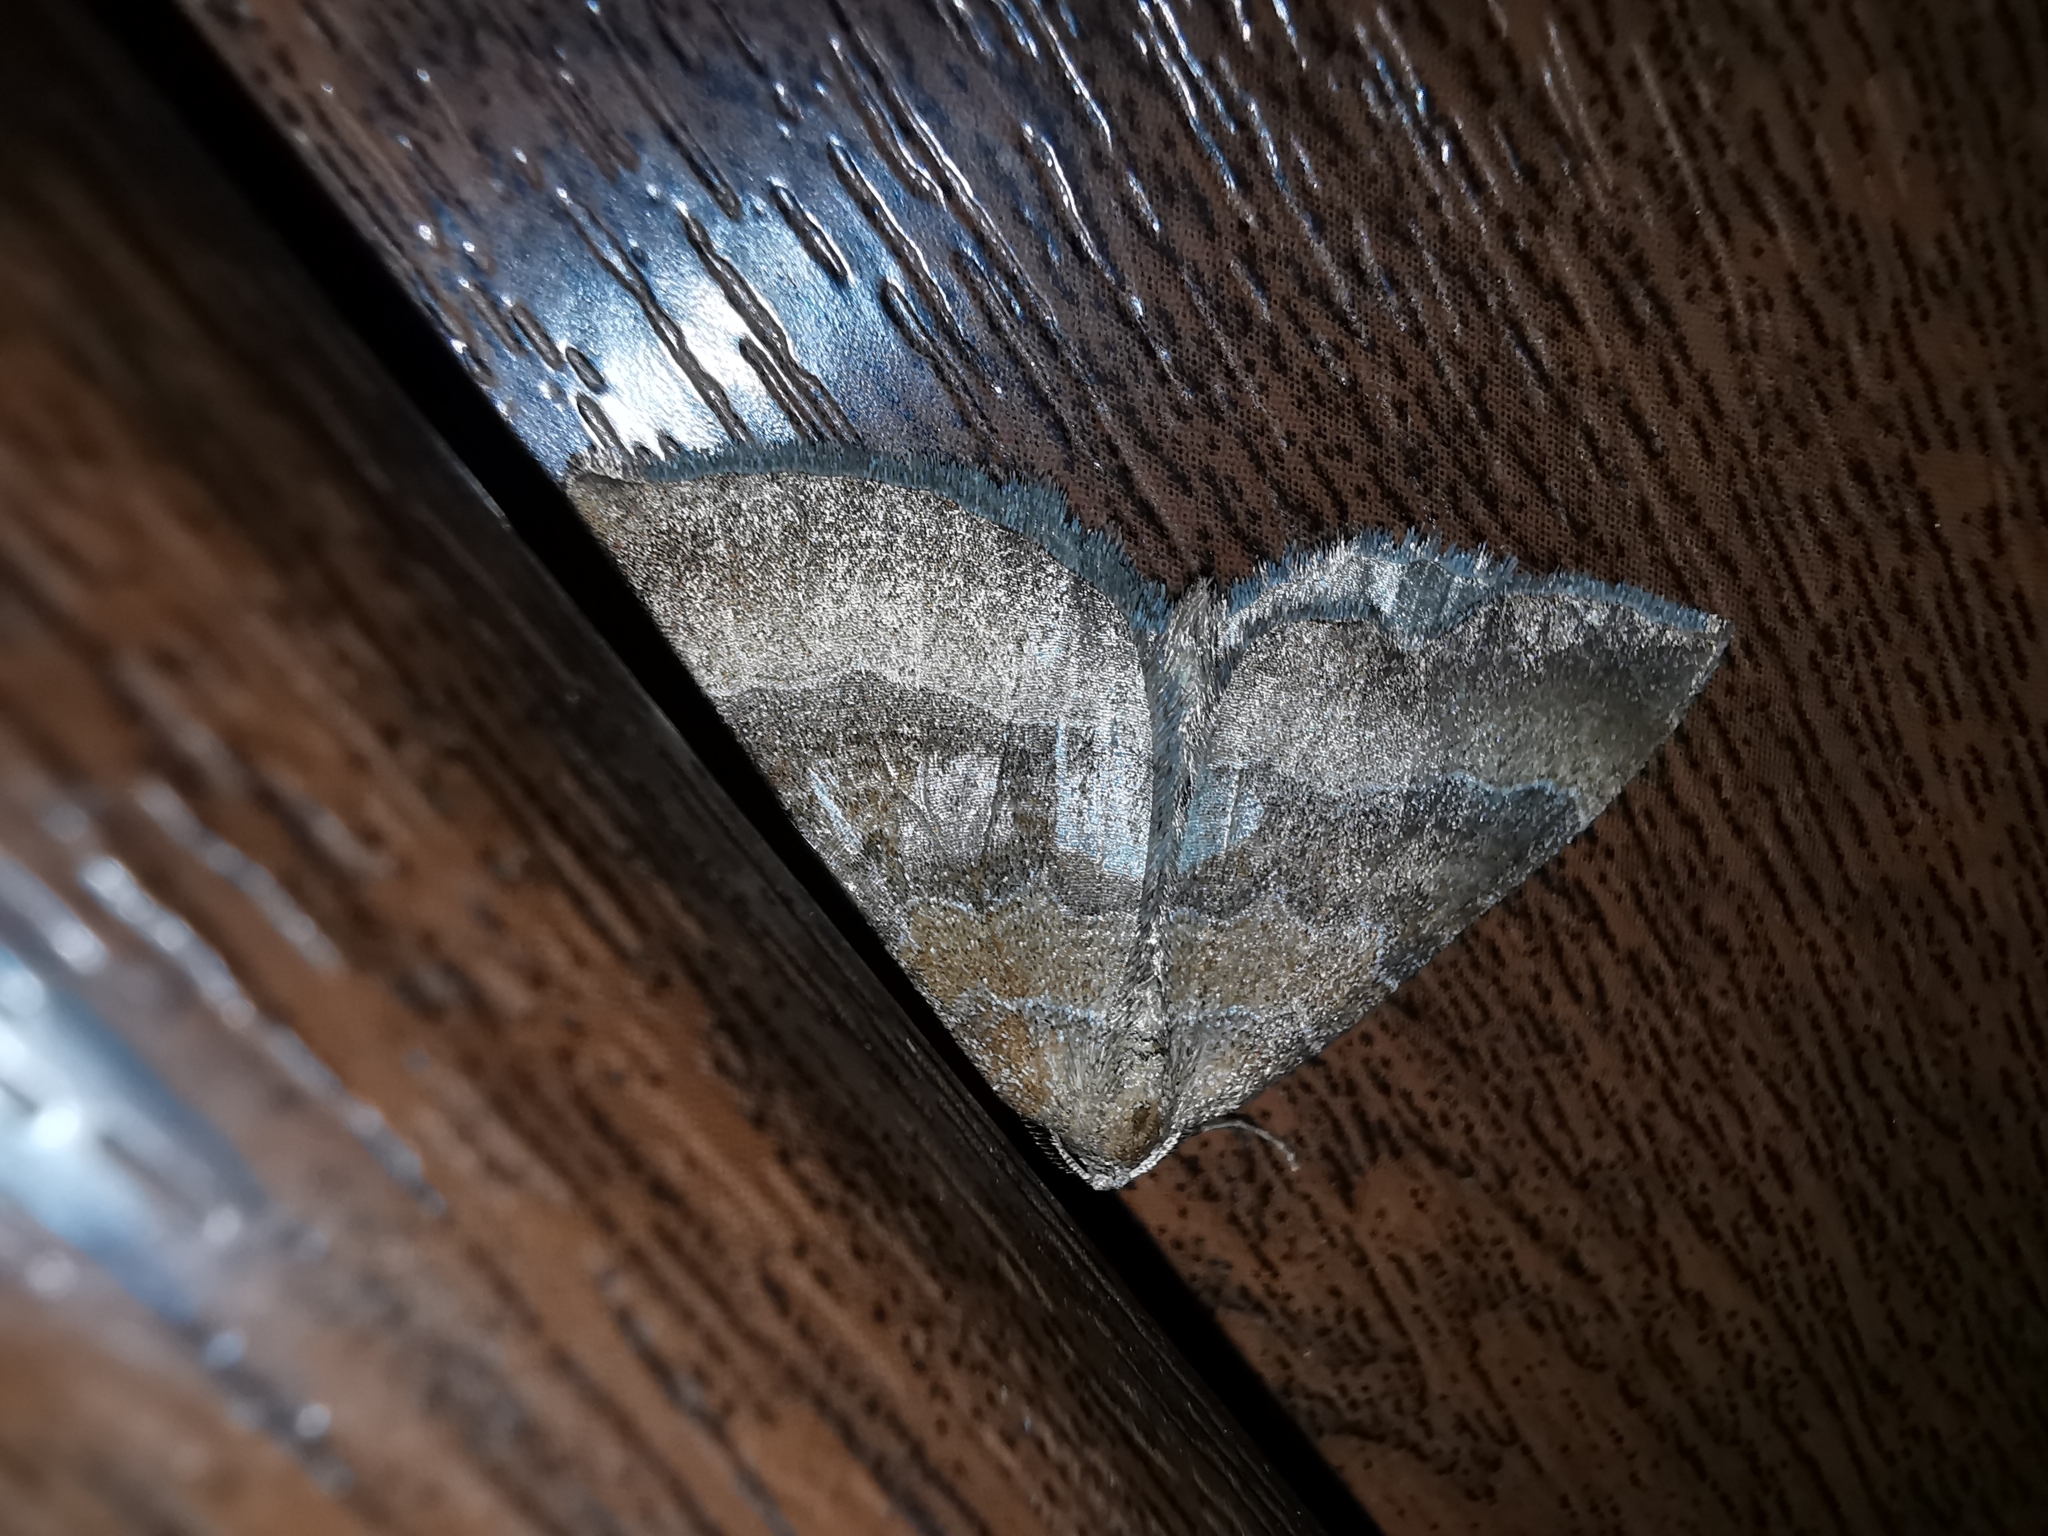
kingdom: Animalia
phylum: Arthropoda
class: Insecta
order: Lepidoptera
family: Geometridae
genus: Larentia
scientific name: Larentia clavaria
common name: Mallow
